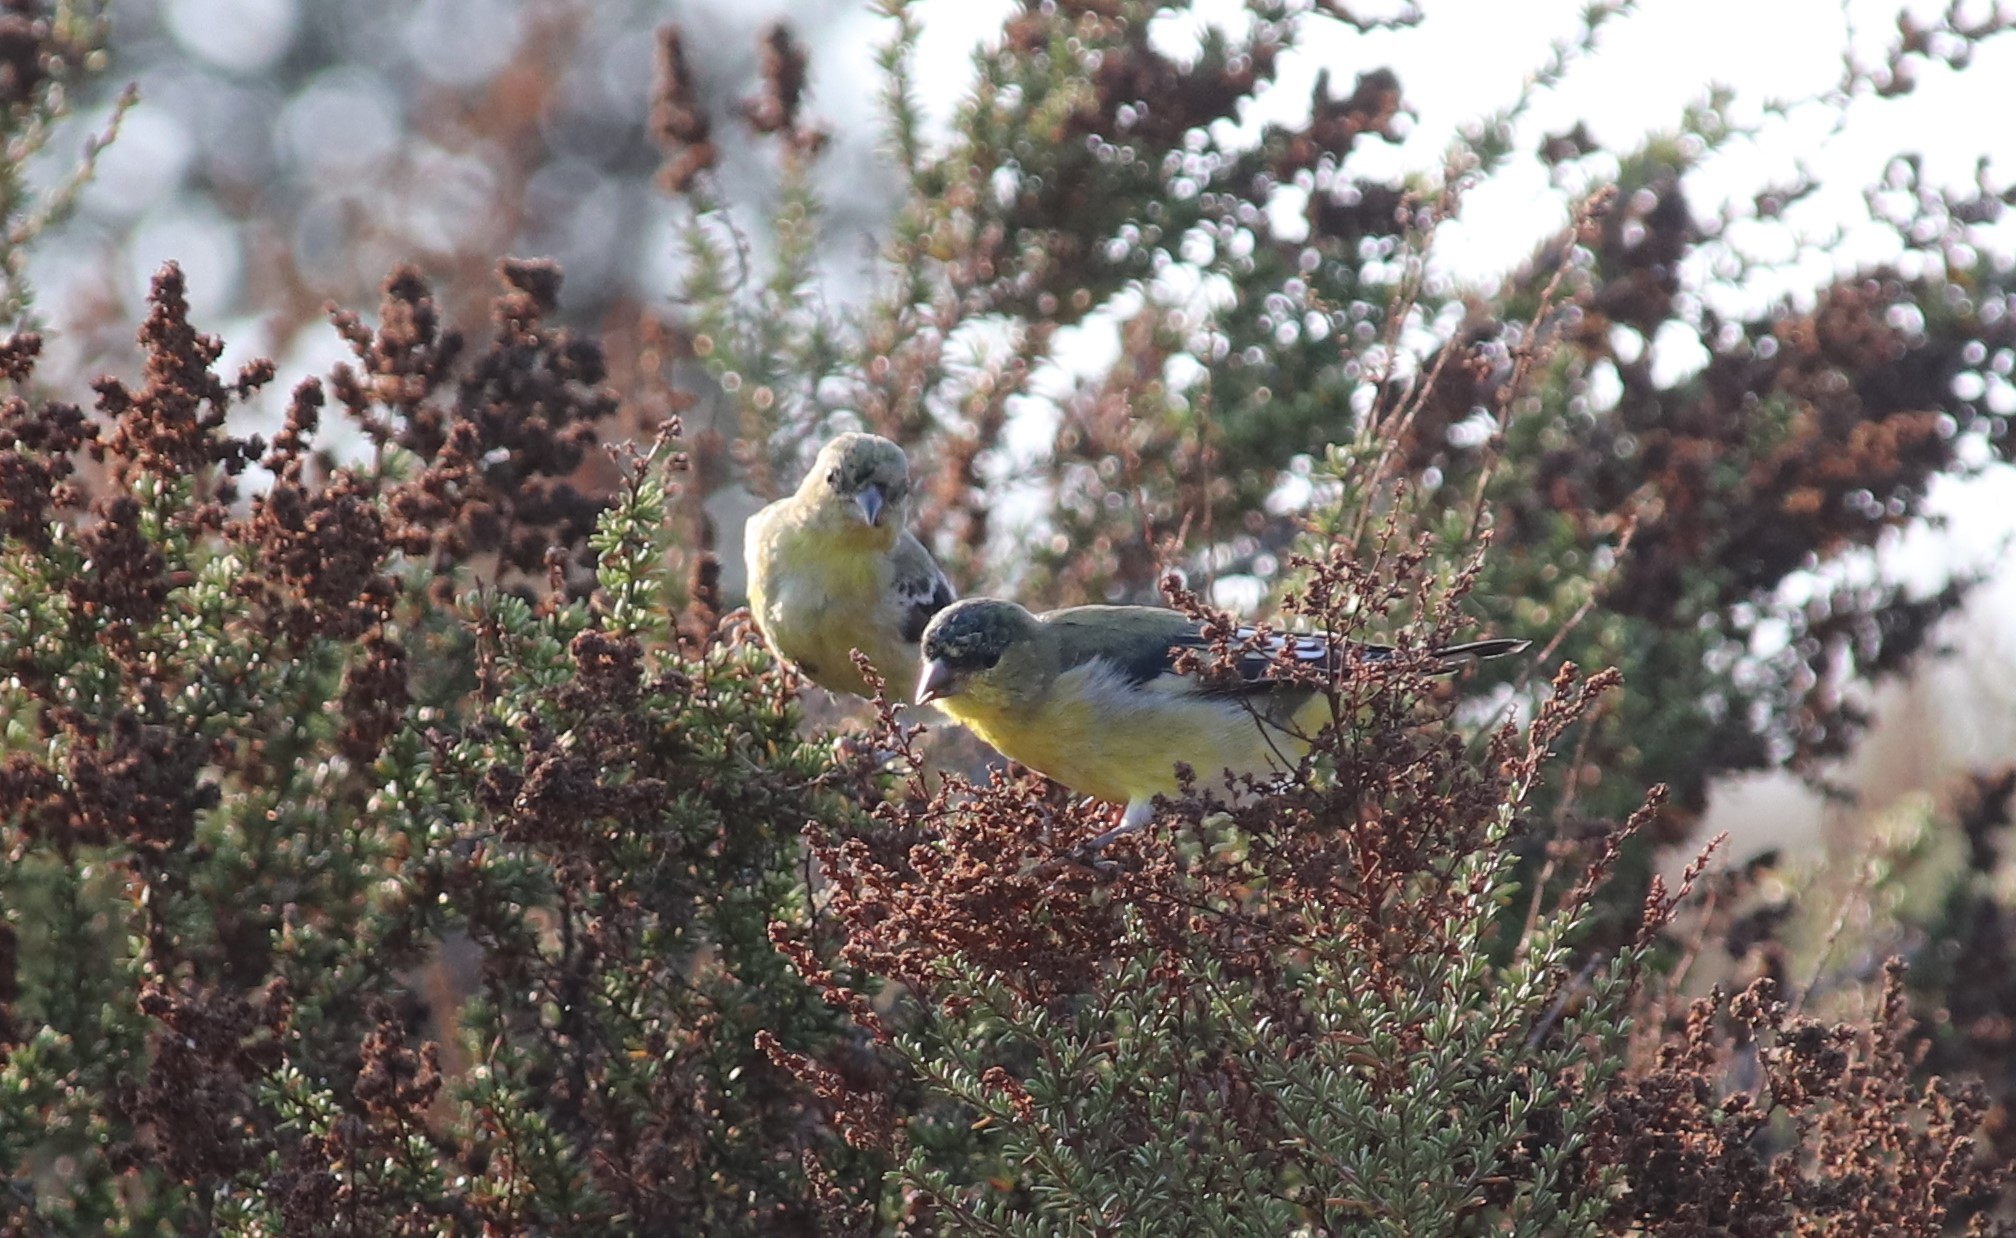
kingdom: Animalia
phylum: Chordata
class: Aves
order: Passeriformes
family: Fringillidae
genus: Spinus
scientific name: Spinus psaltria
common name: Lesser goldfinch
